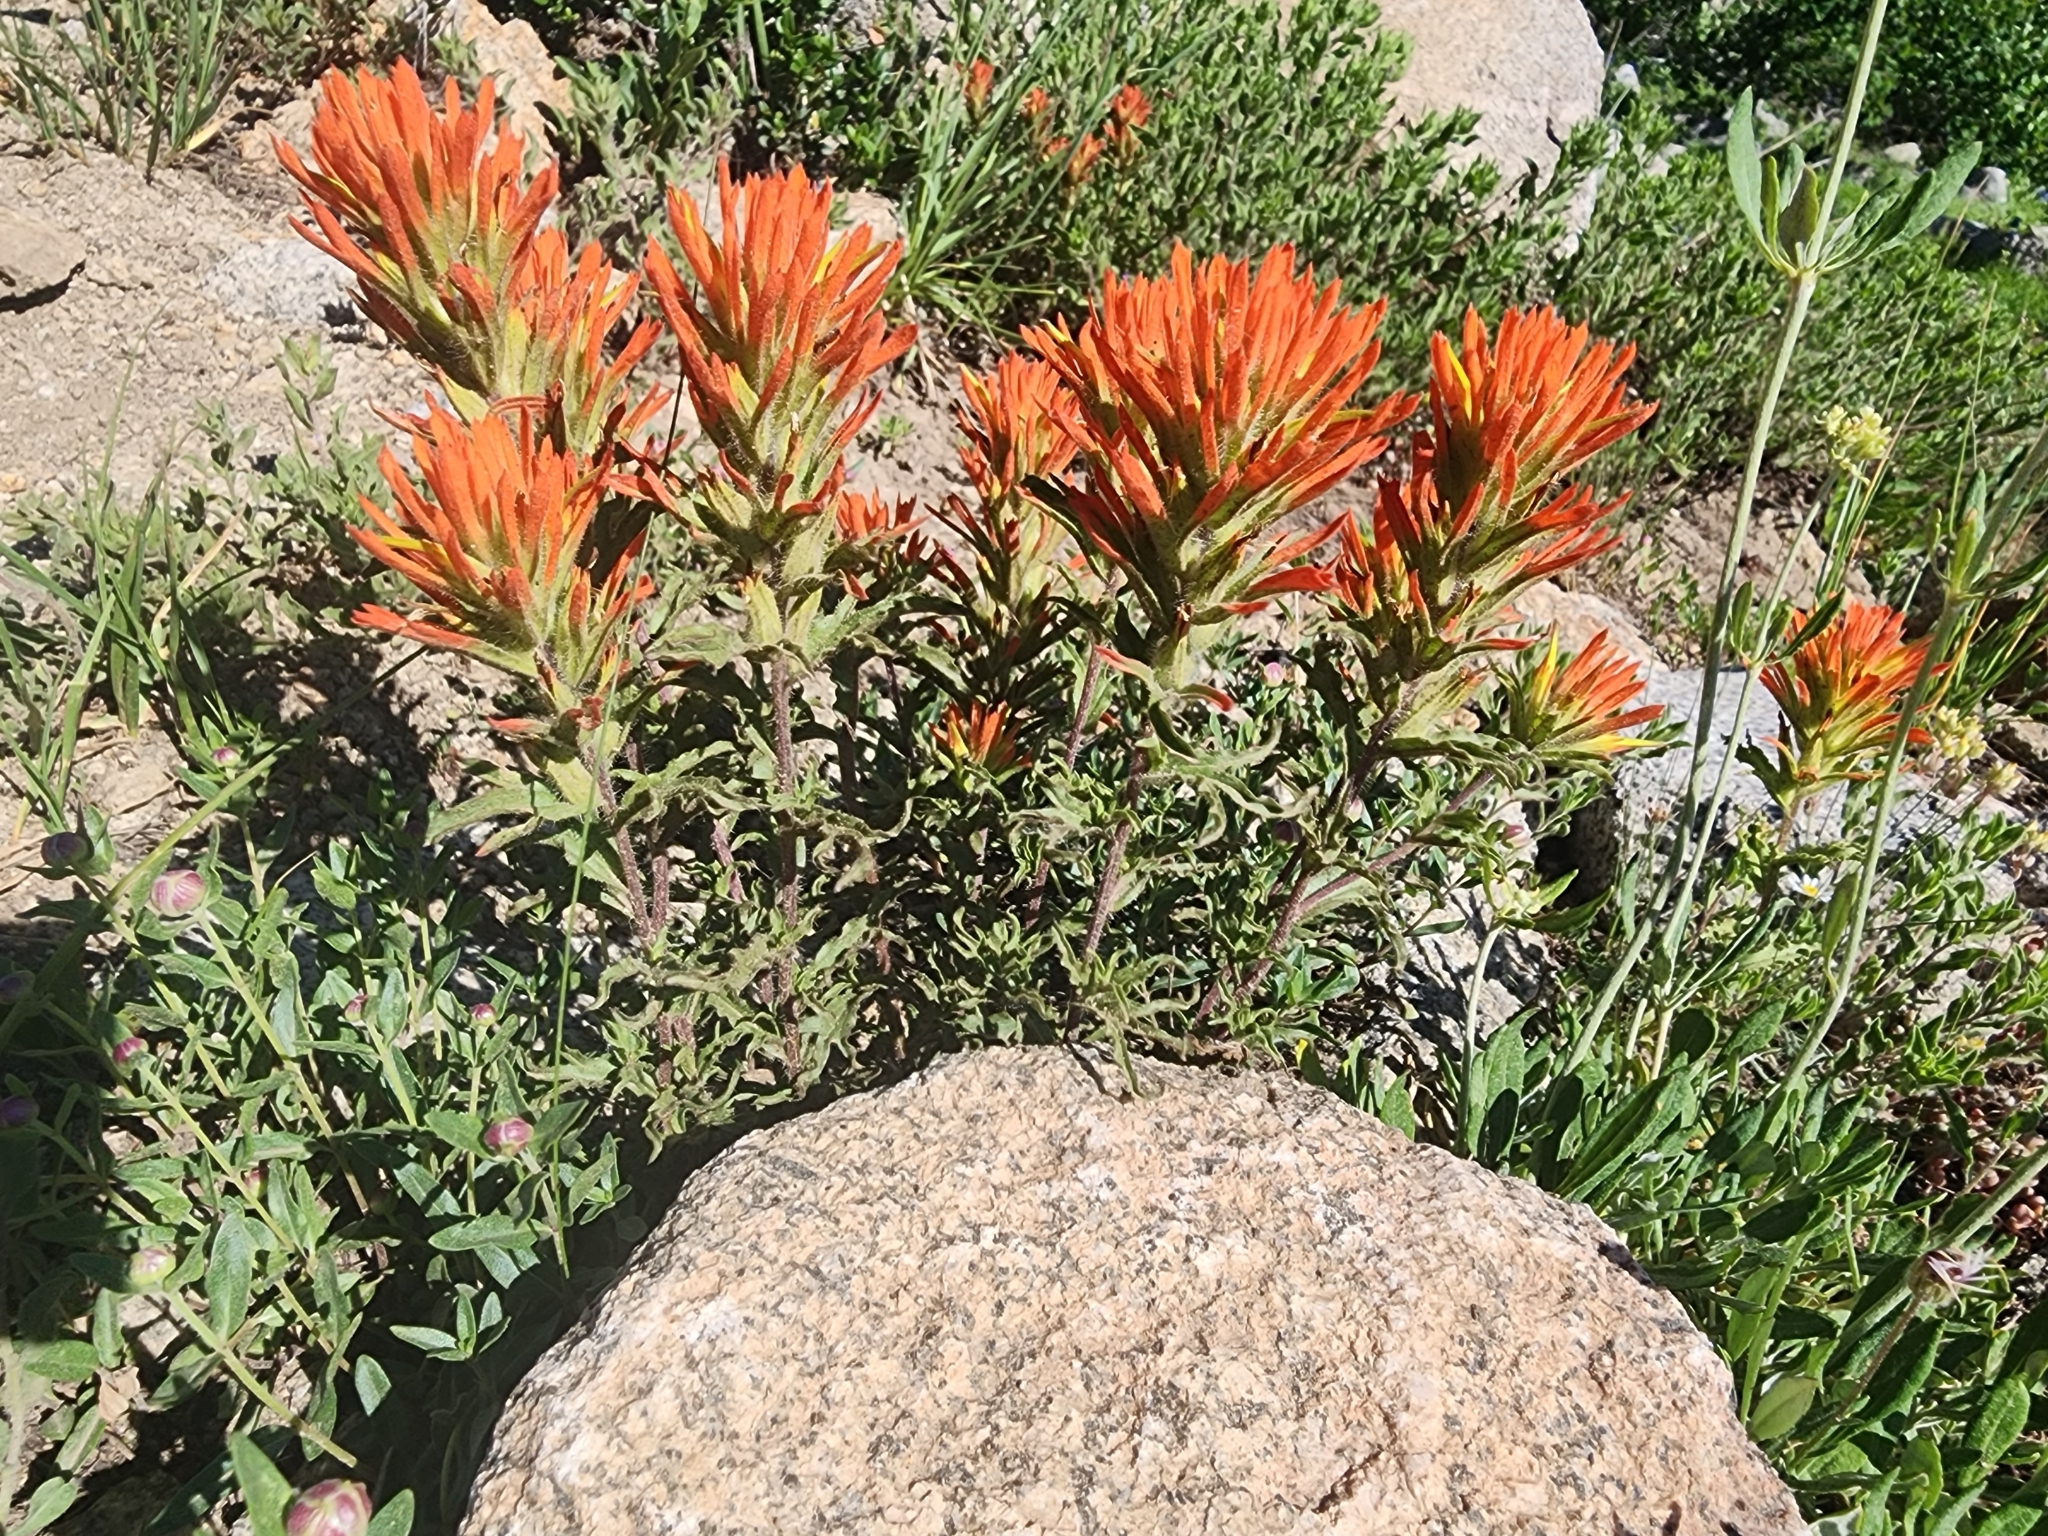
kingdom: Plantae
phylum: Tracheophyta
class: Magnoliopsida
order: Lamiales
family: Orobanchaceae
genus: Castilleja
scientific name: Castilleja applegatei
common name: Wavy-leaf paintbrush
